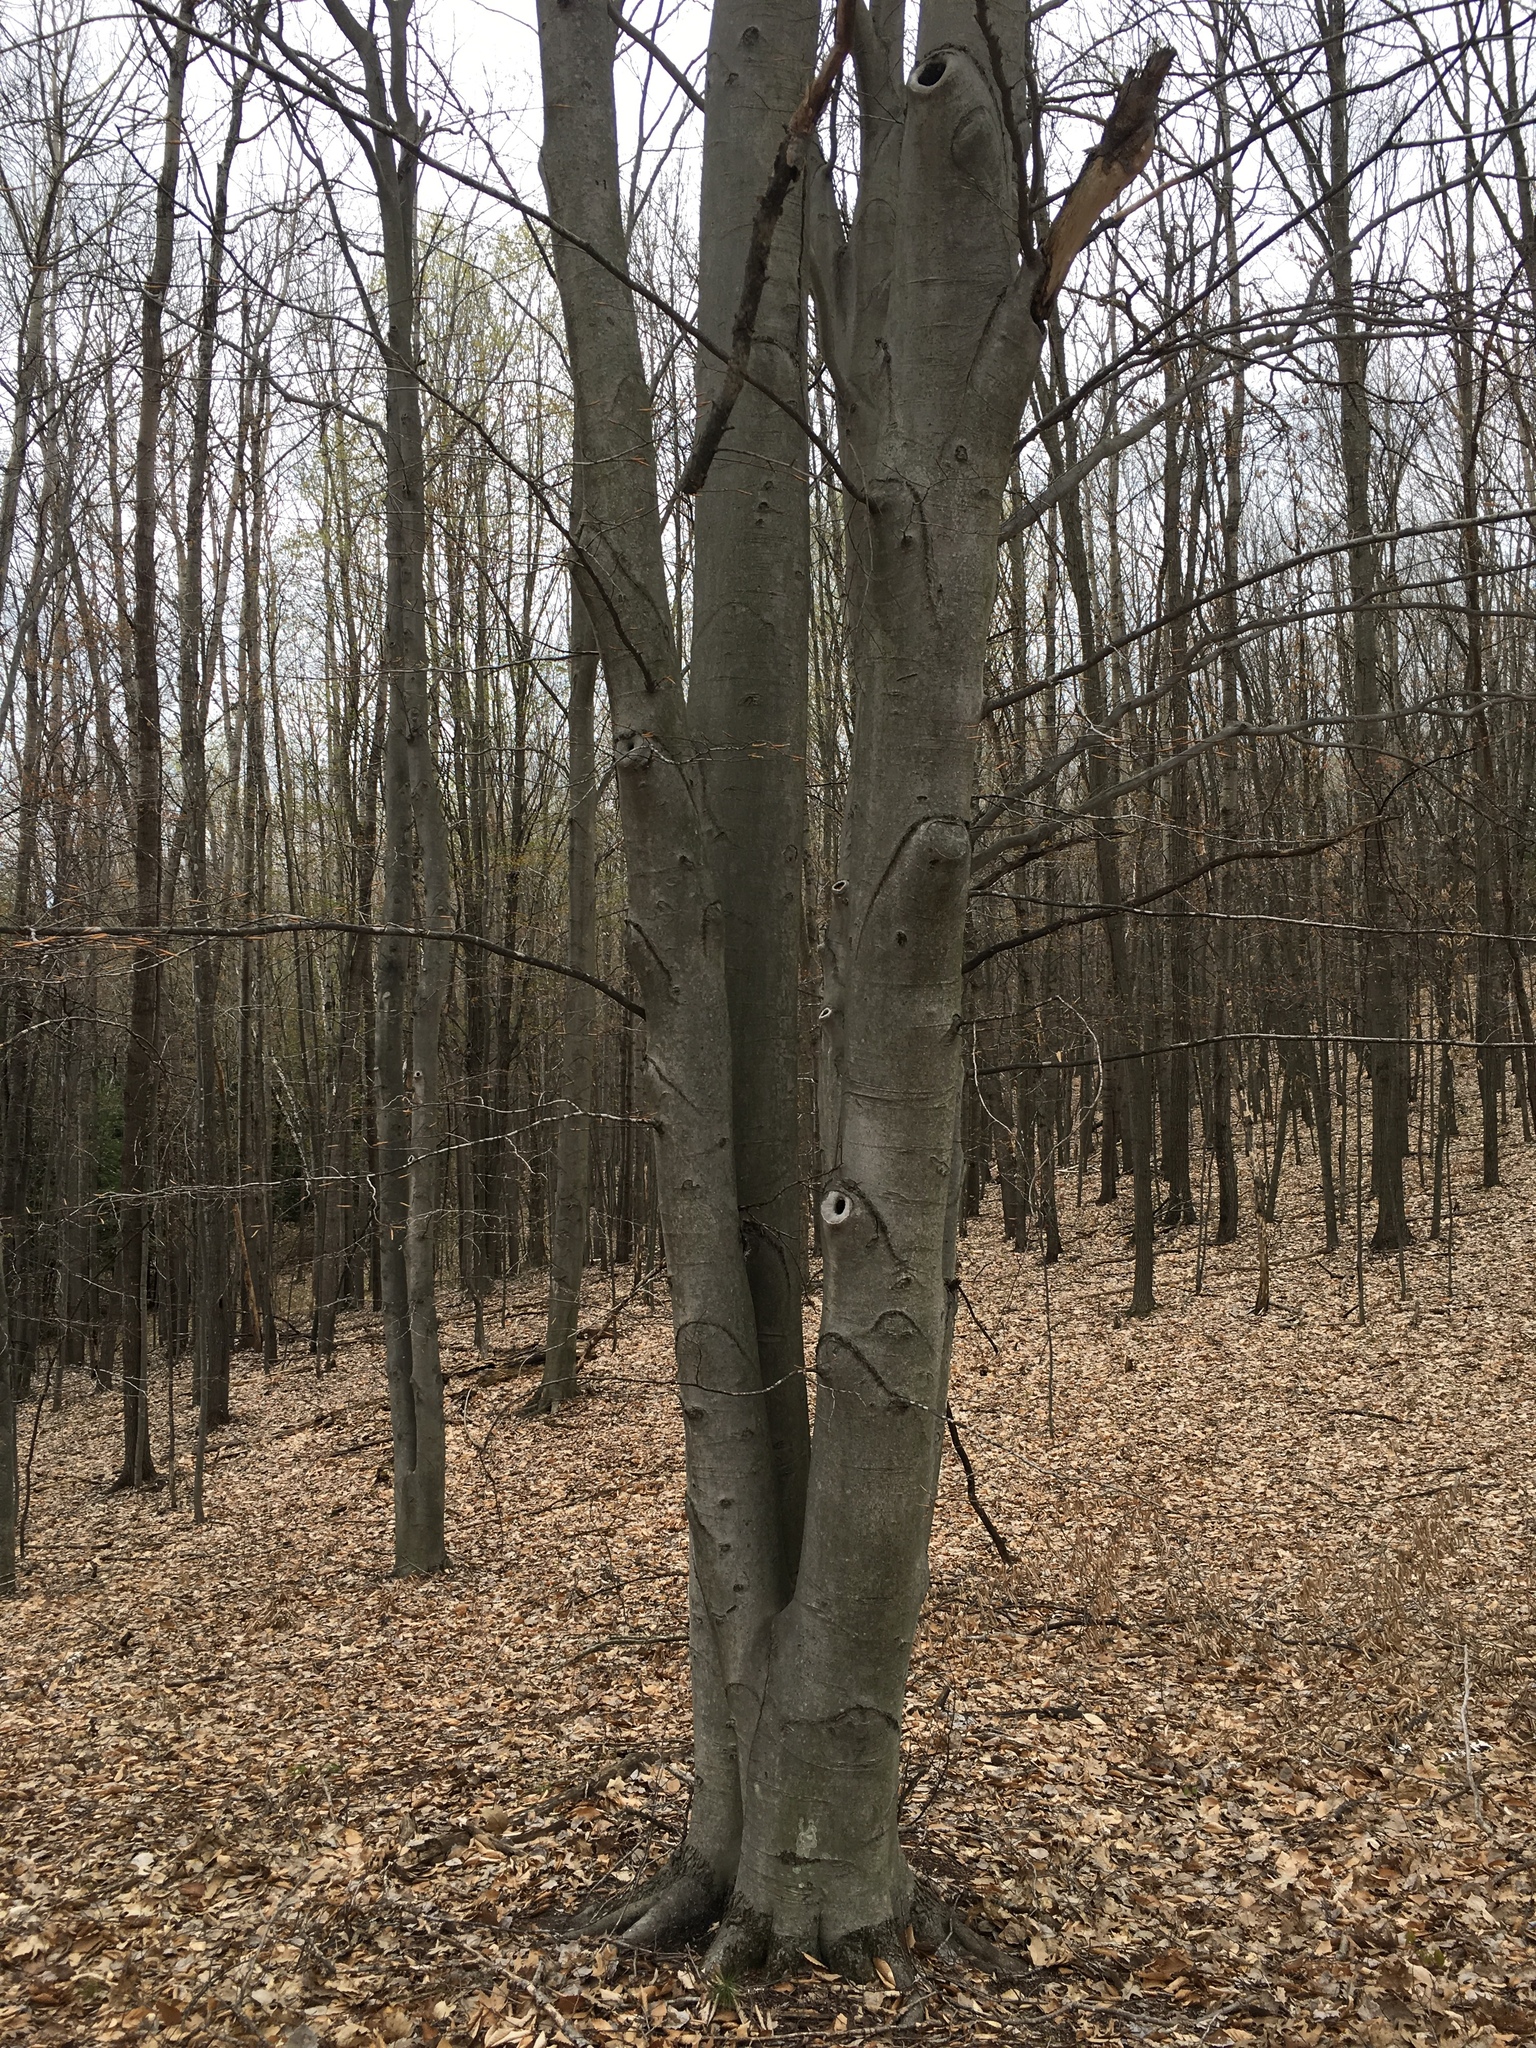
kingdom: Plantae
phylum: Tracheophyta
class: Magnoliopsida
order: Fagales
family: Fagaceae
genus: Fagus
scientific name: Fagus grandifolia
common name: American beech
